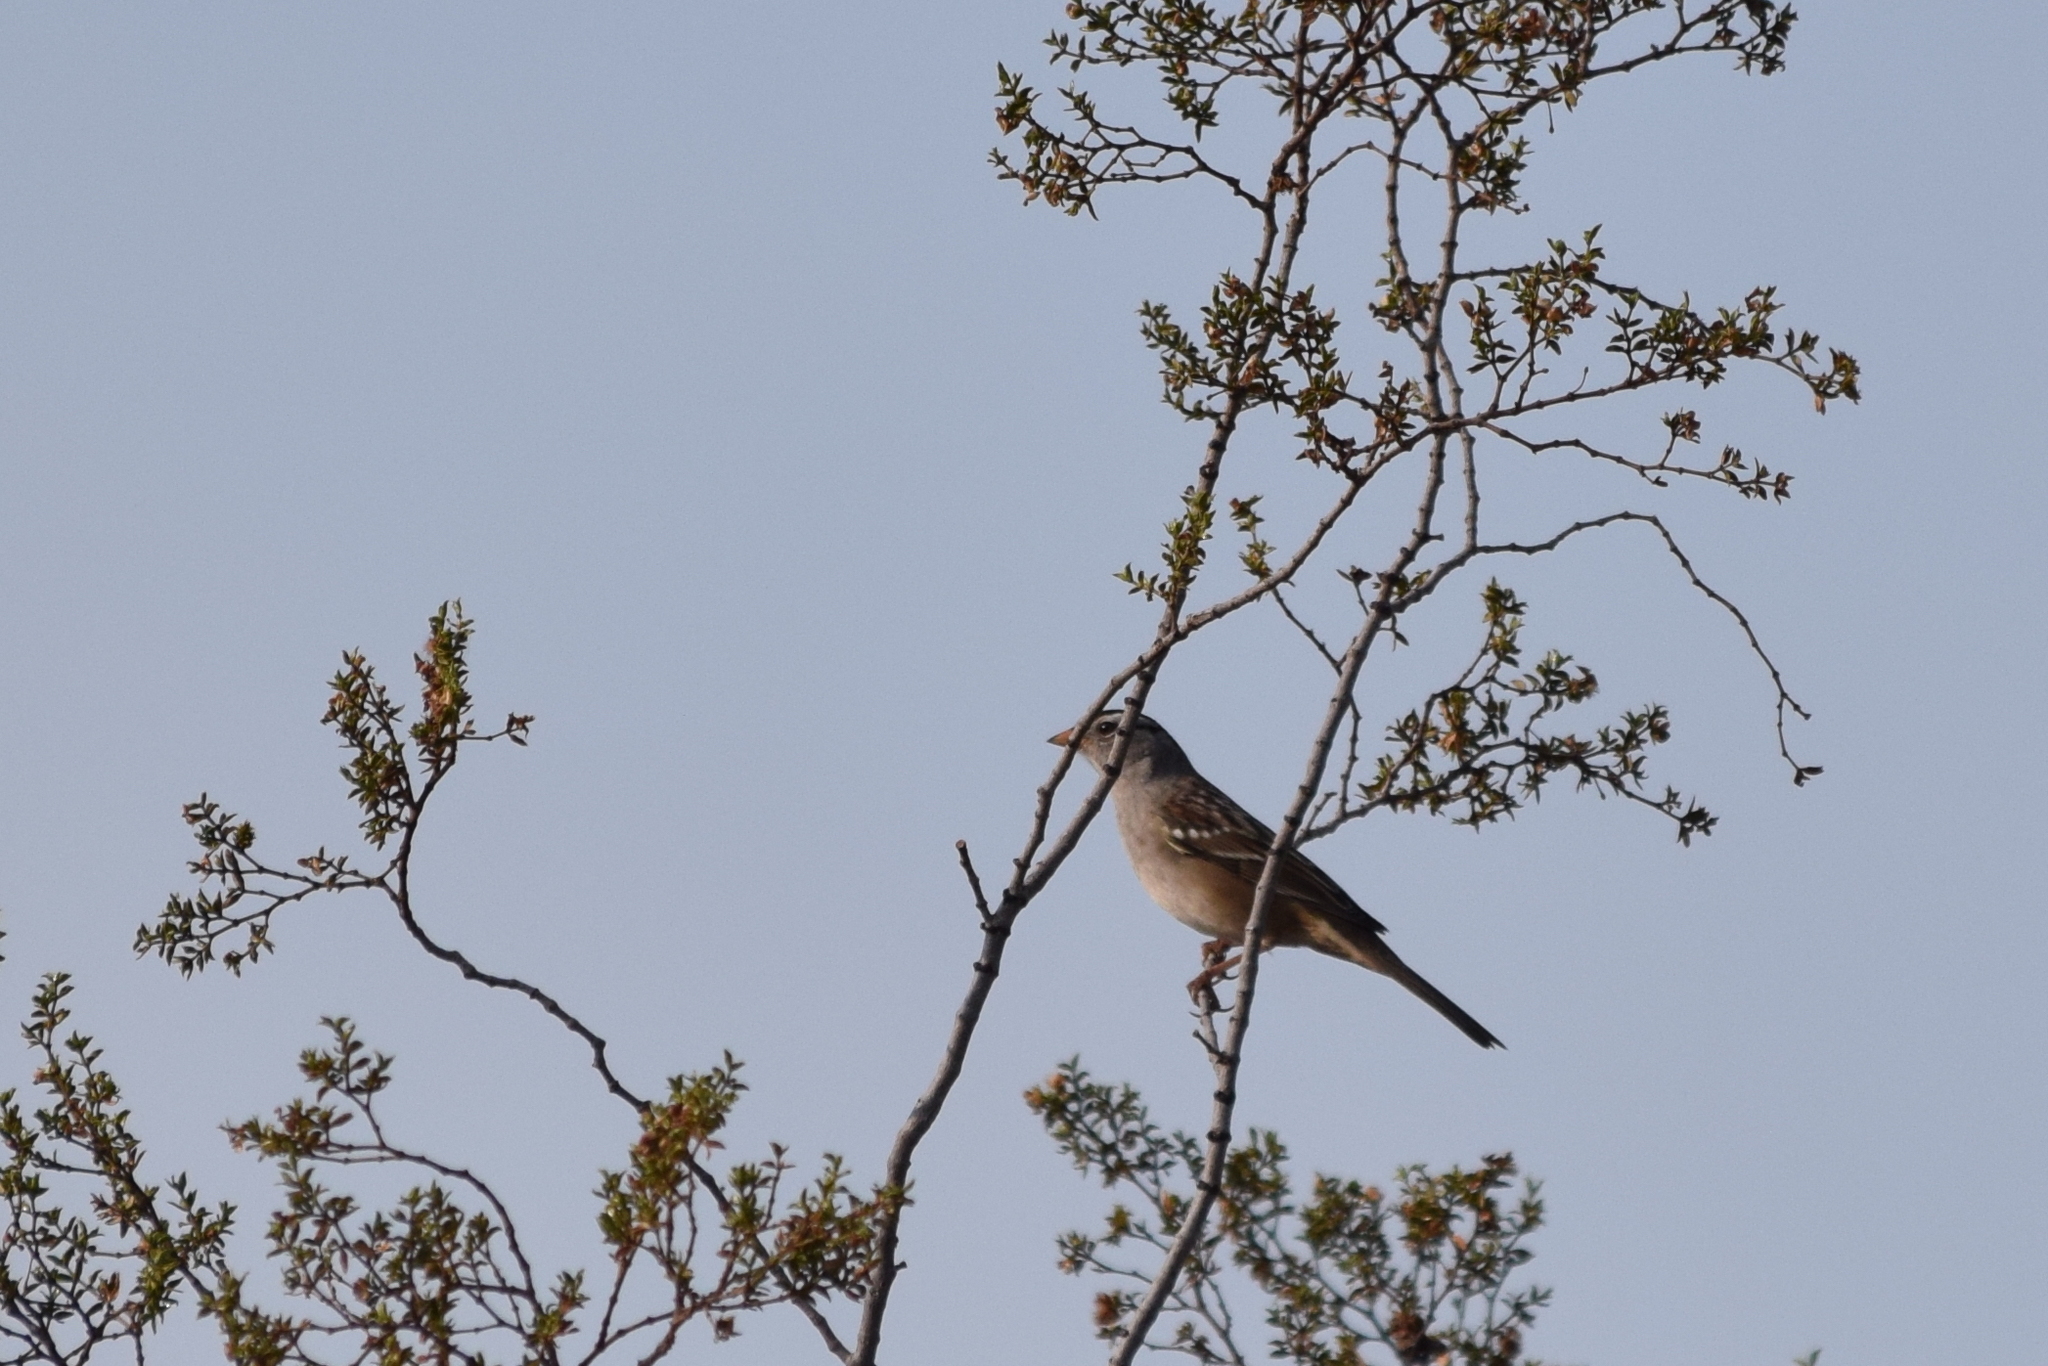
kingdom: Animalia
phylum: Chordata
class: Aves
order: Passeriformes
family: Passerellidae
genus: Zonotrichia
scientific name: Zonotrichia leucophrys
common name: White-crowned sparrow
